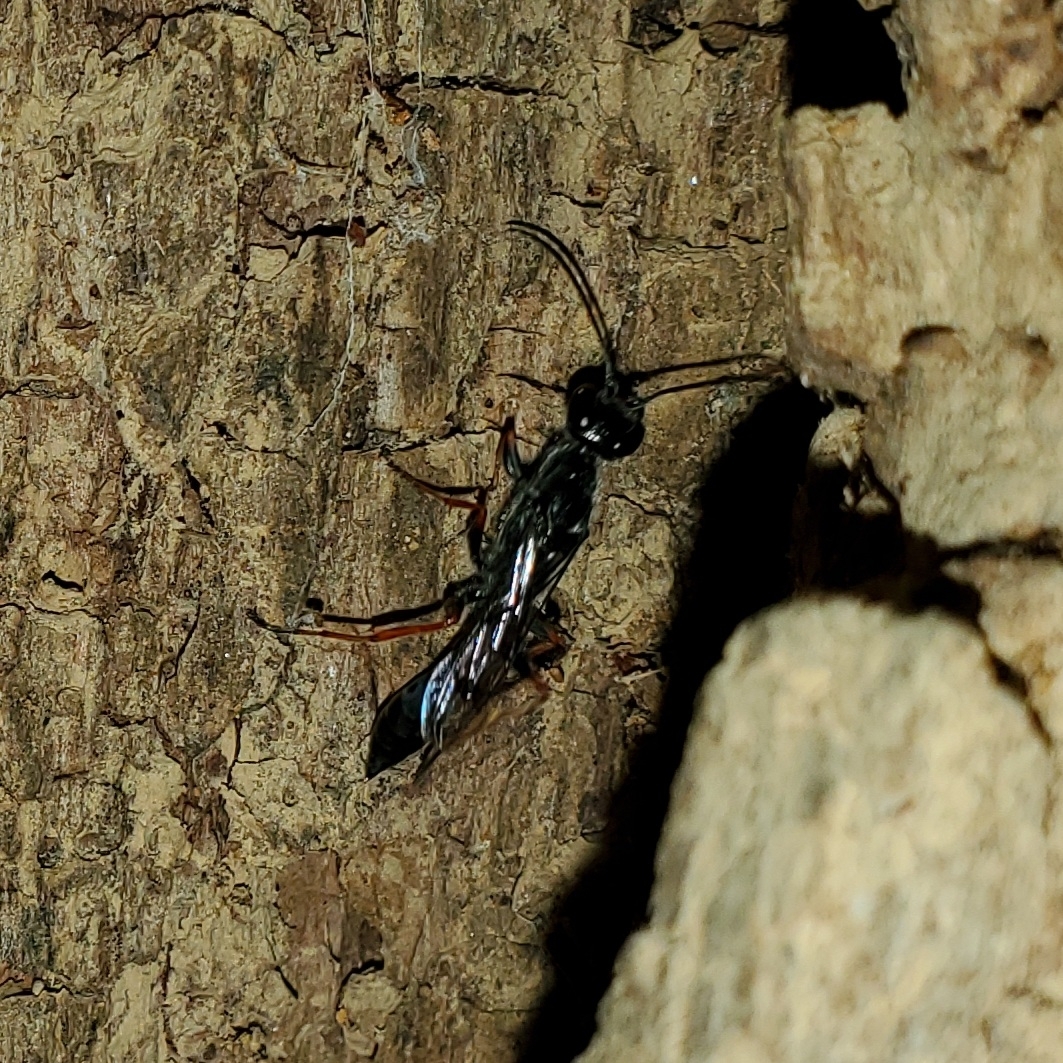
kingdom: Animalia
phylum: Arthropoda
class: Insecta
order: Hymenoptera
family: Sphecidae
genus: Podium
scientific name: Podium rufipes
